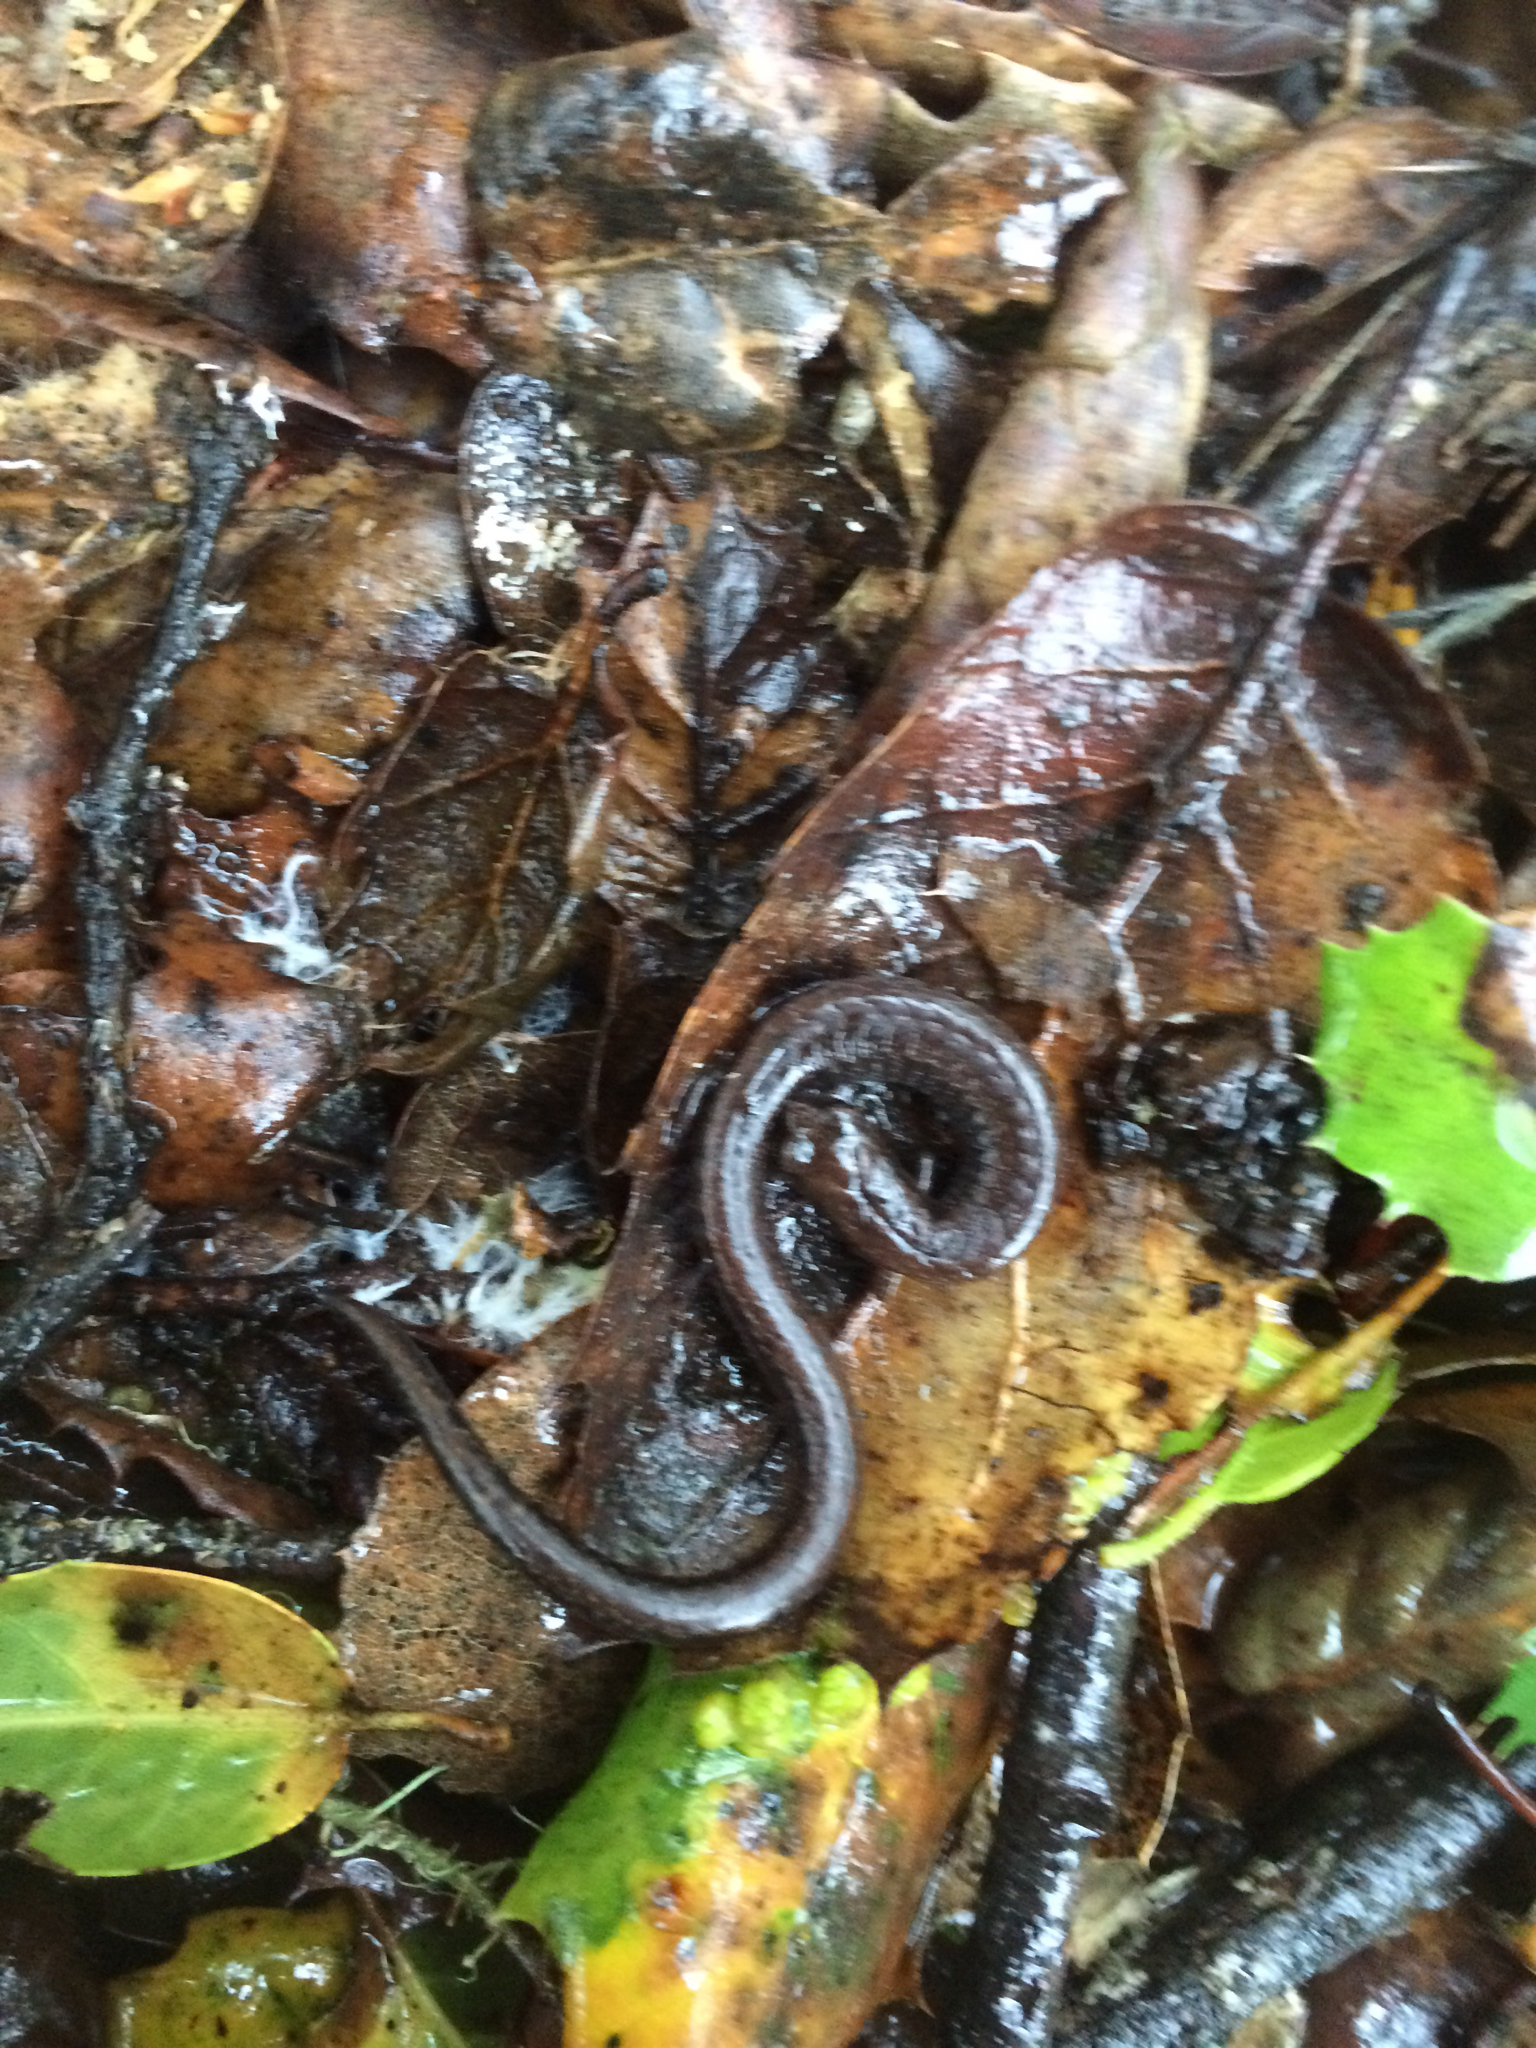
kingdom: Animalia
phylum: Chordata
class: Amphibia
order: Caudata
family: Plethodontidae
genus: Batrachoseps
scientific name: Batrachoseps attenuatus
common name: California slender salamander
